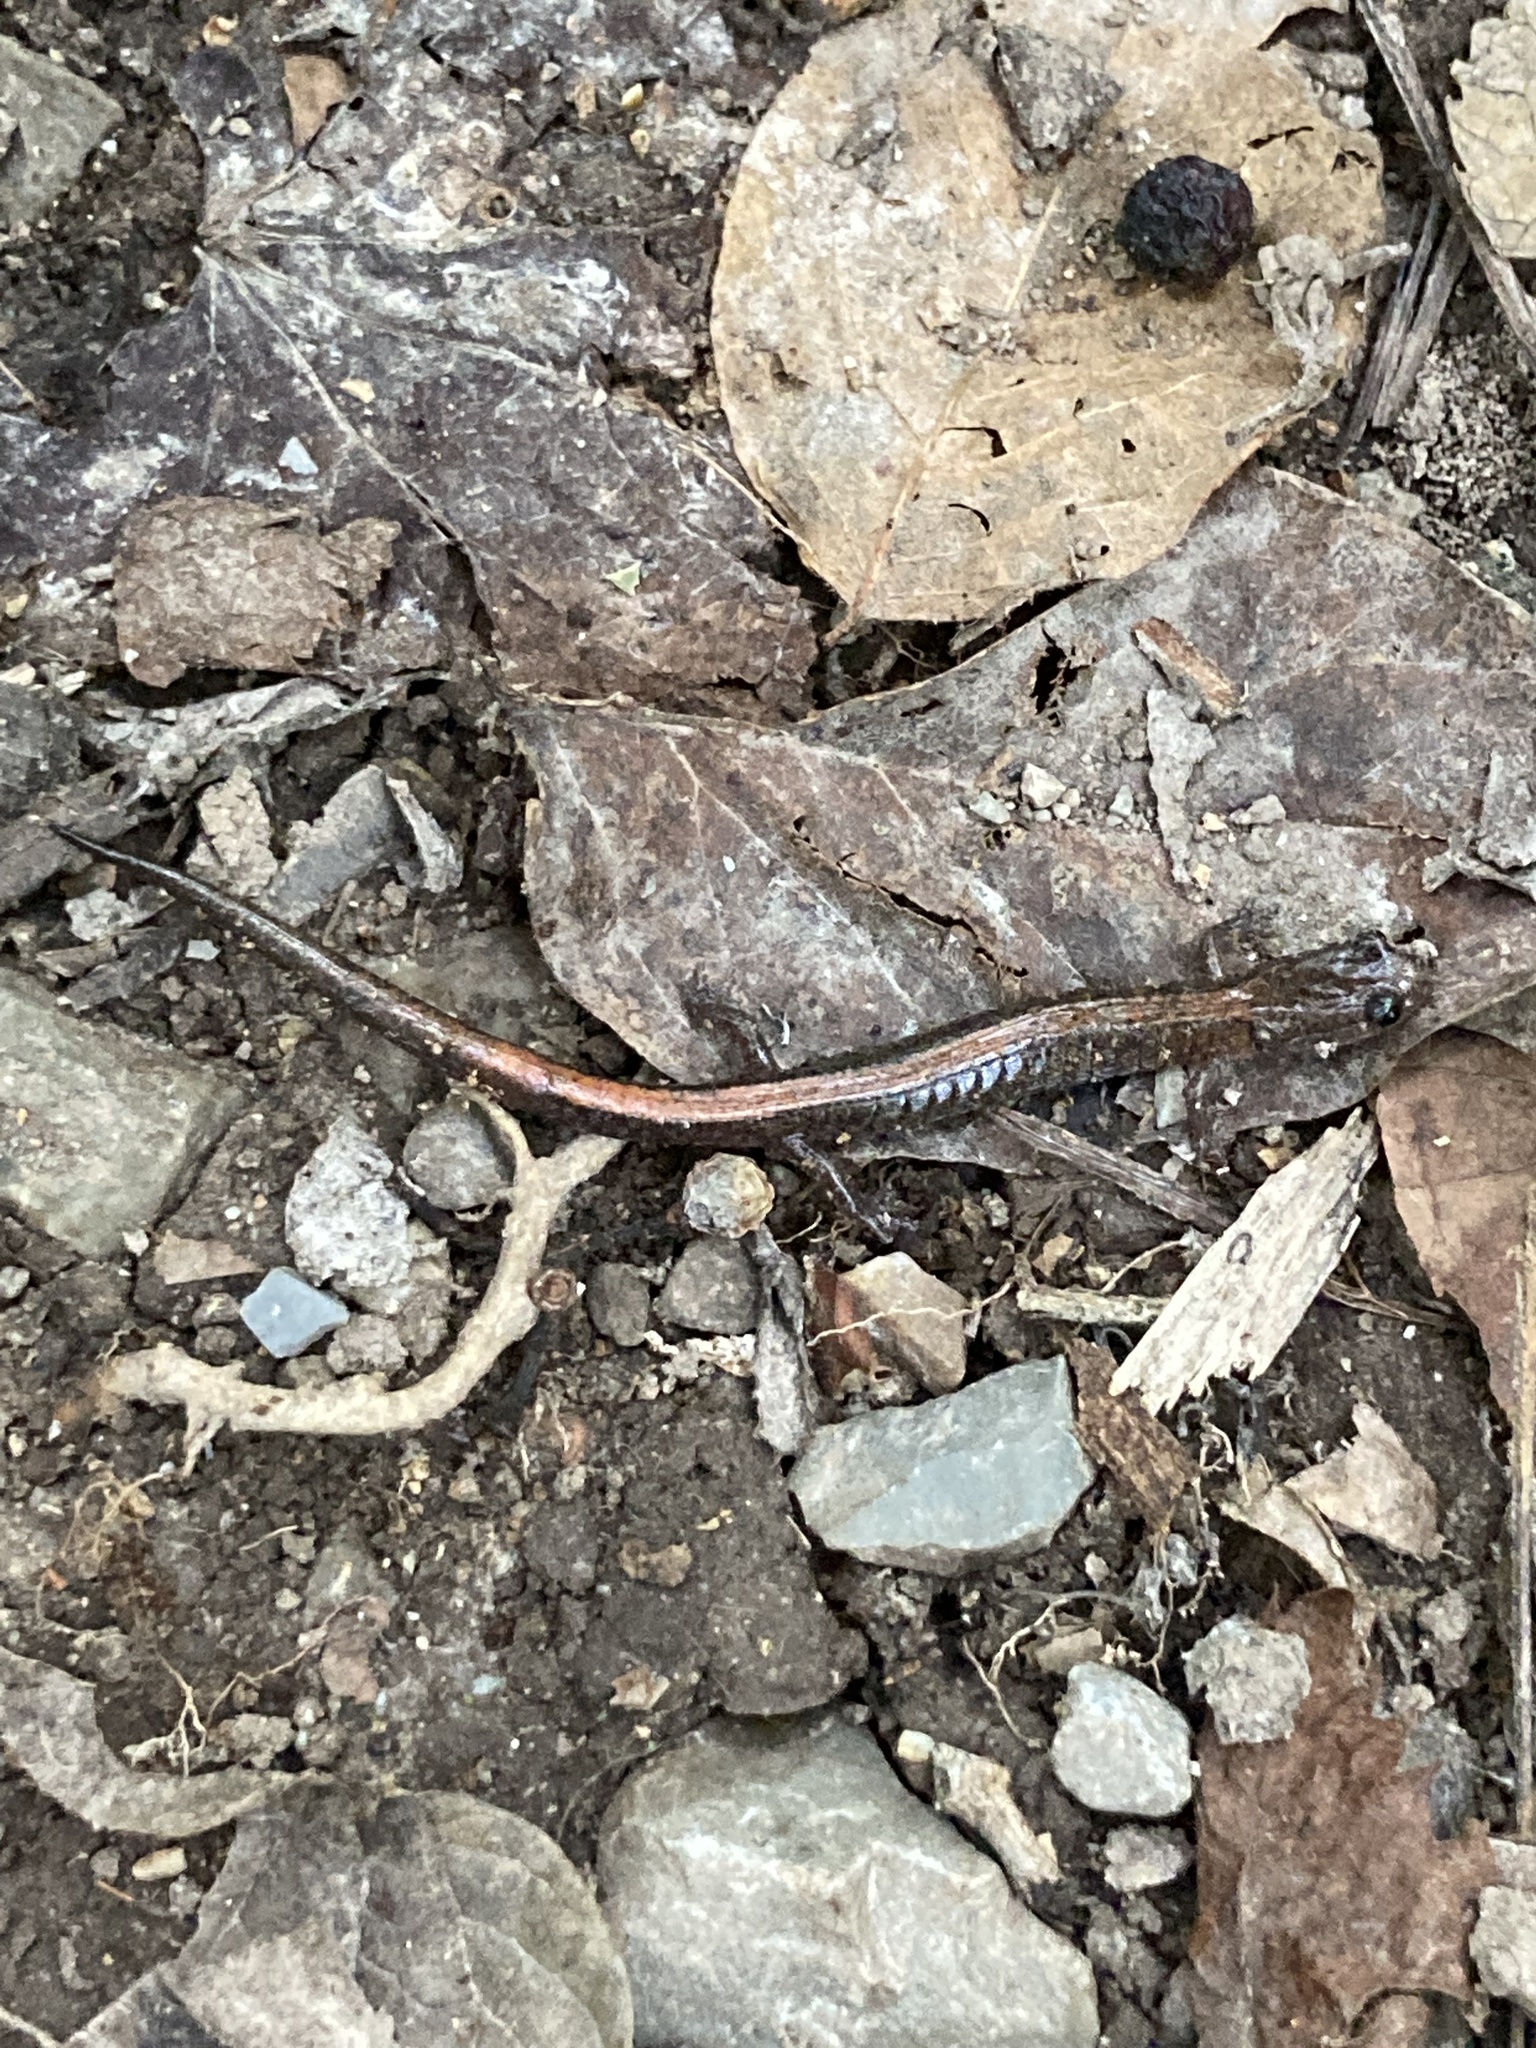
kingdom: Animalia
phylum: Chordata
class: Amphibia
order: Caudata
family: Plethodontidae
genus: Plethodon
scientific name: Plethodon dorsalis
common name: Northern zigzag salamander
